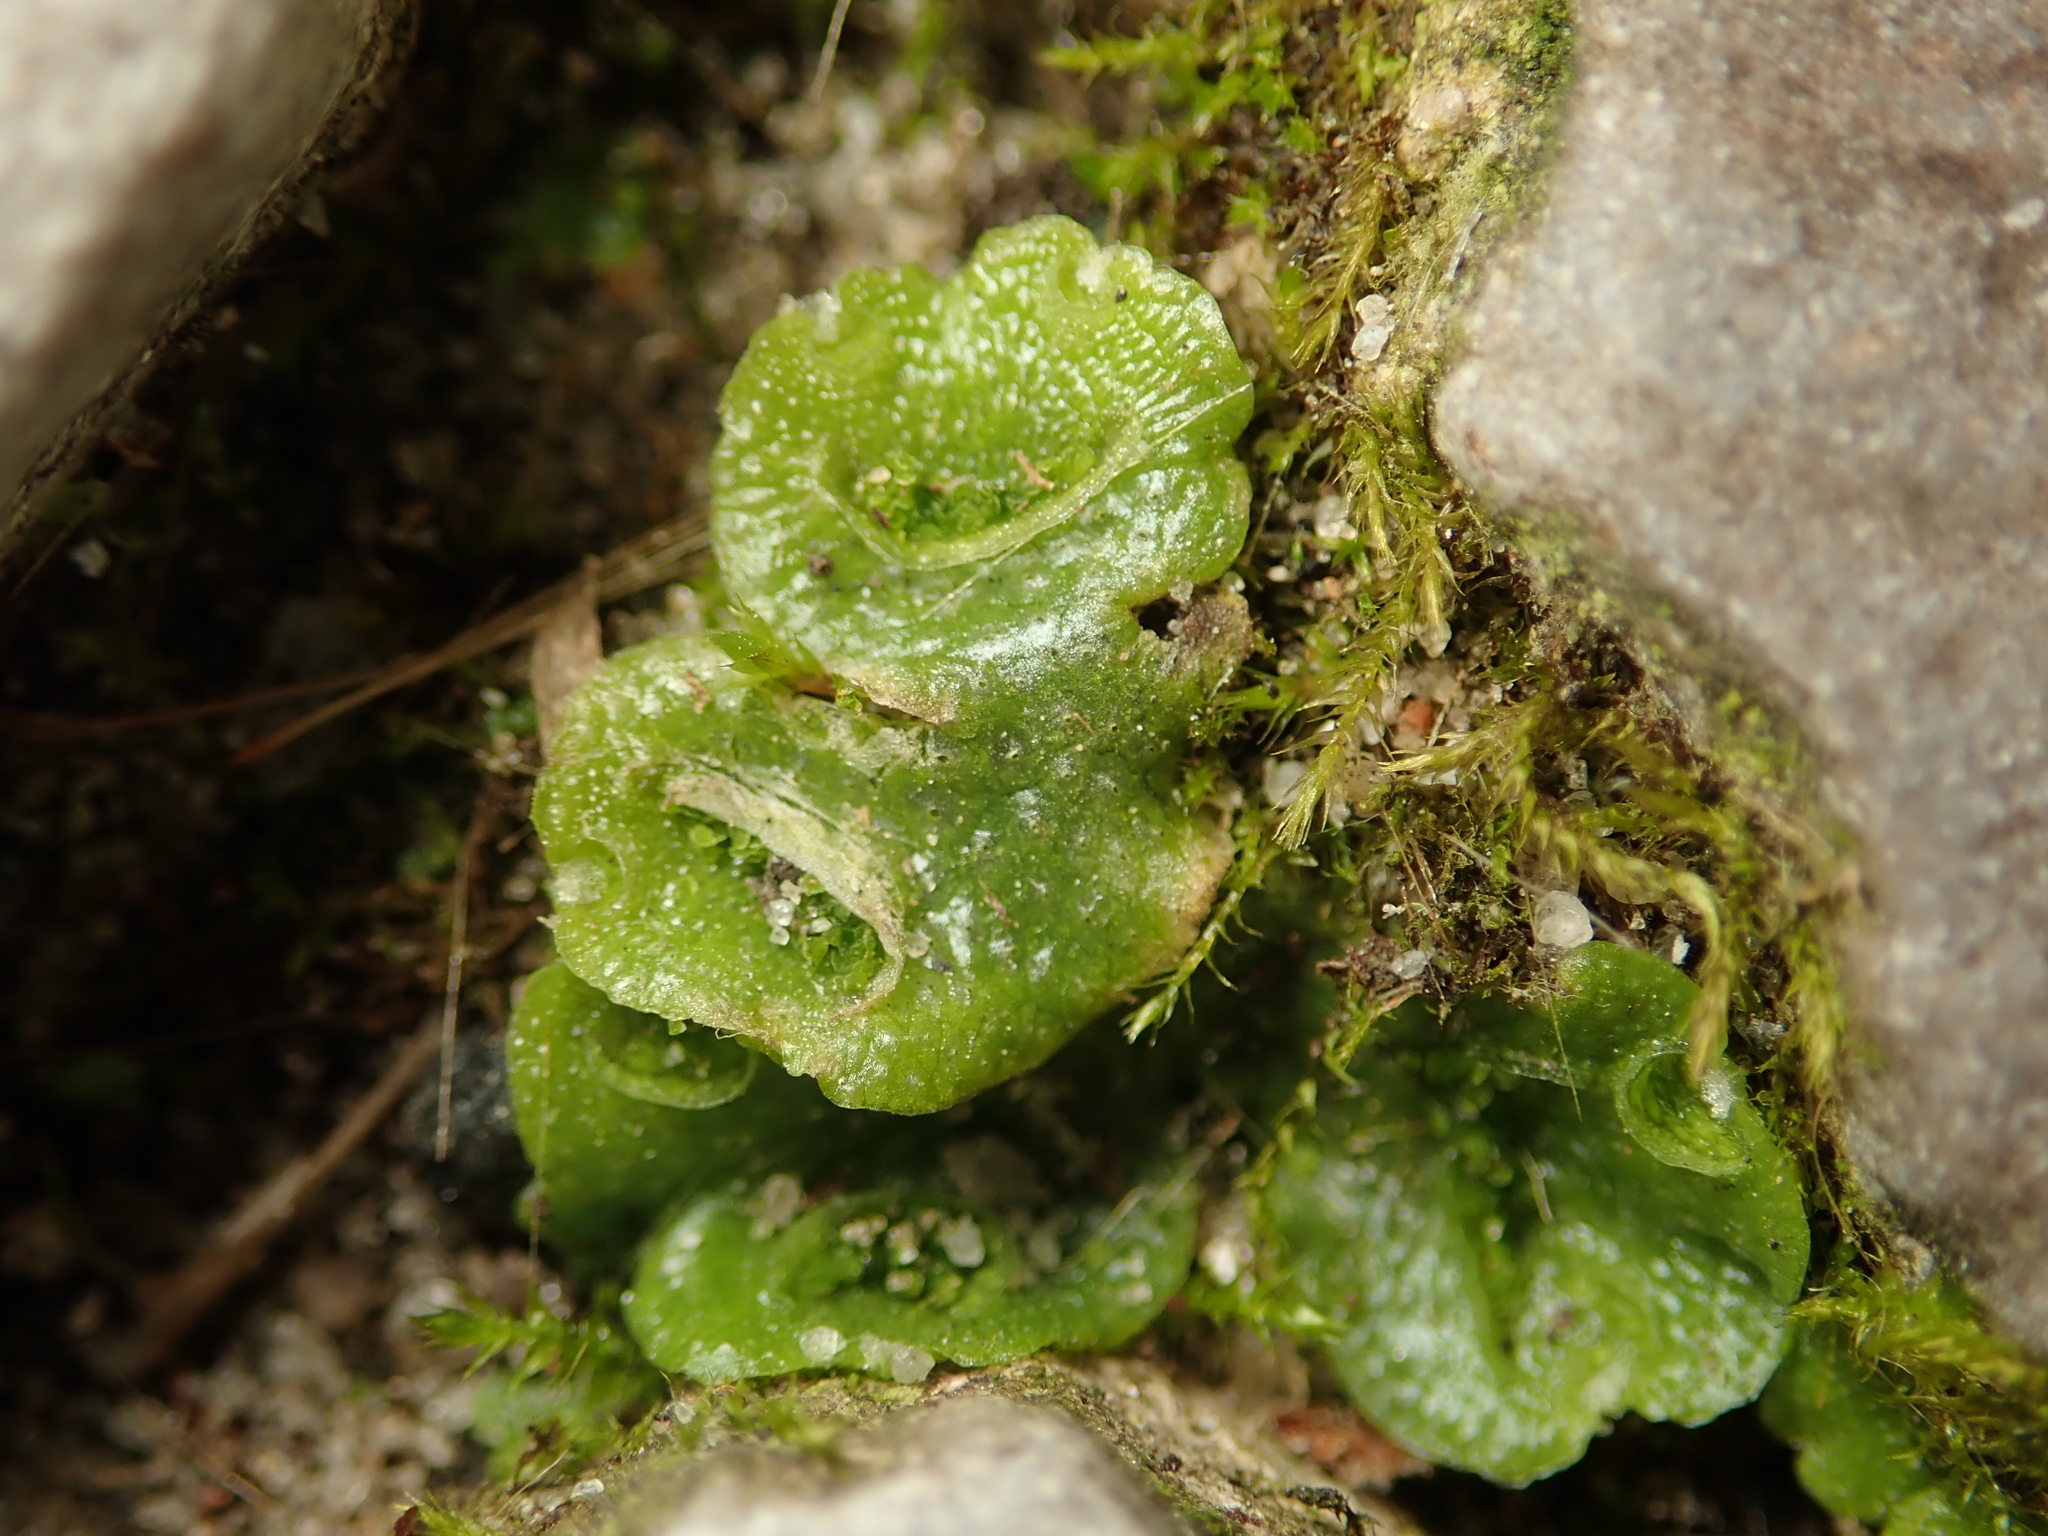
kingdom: Plantae
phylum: Marchantiophyta
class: Marchantiopsida
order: Lunulariales
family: Lunulariaceae
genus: Lunularia
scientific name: Lunularia cruciata
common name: Crescent-cup liverwort
